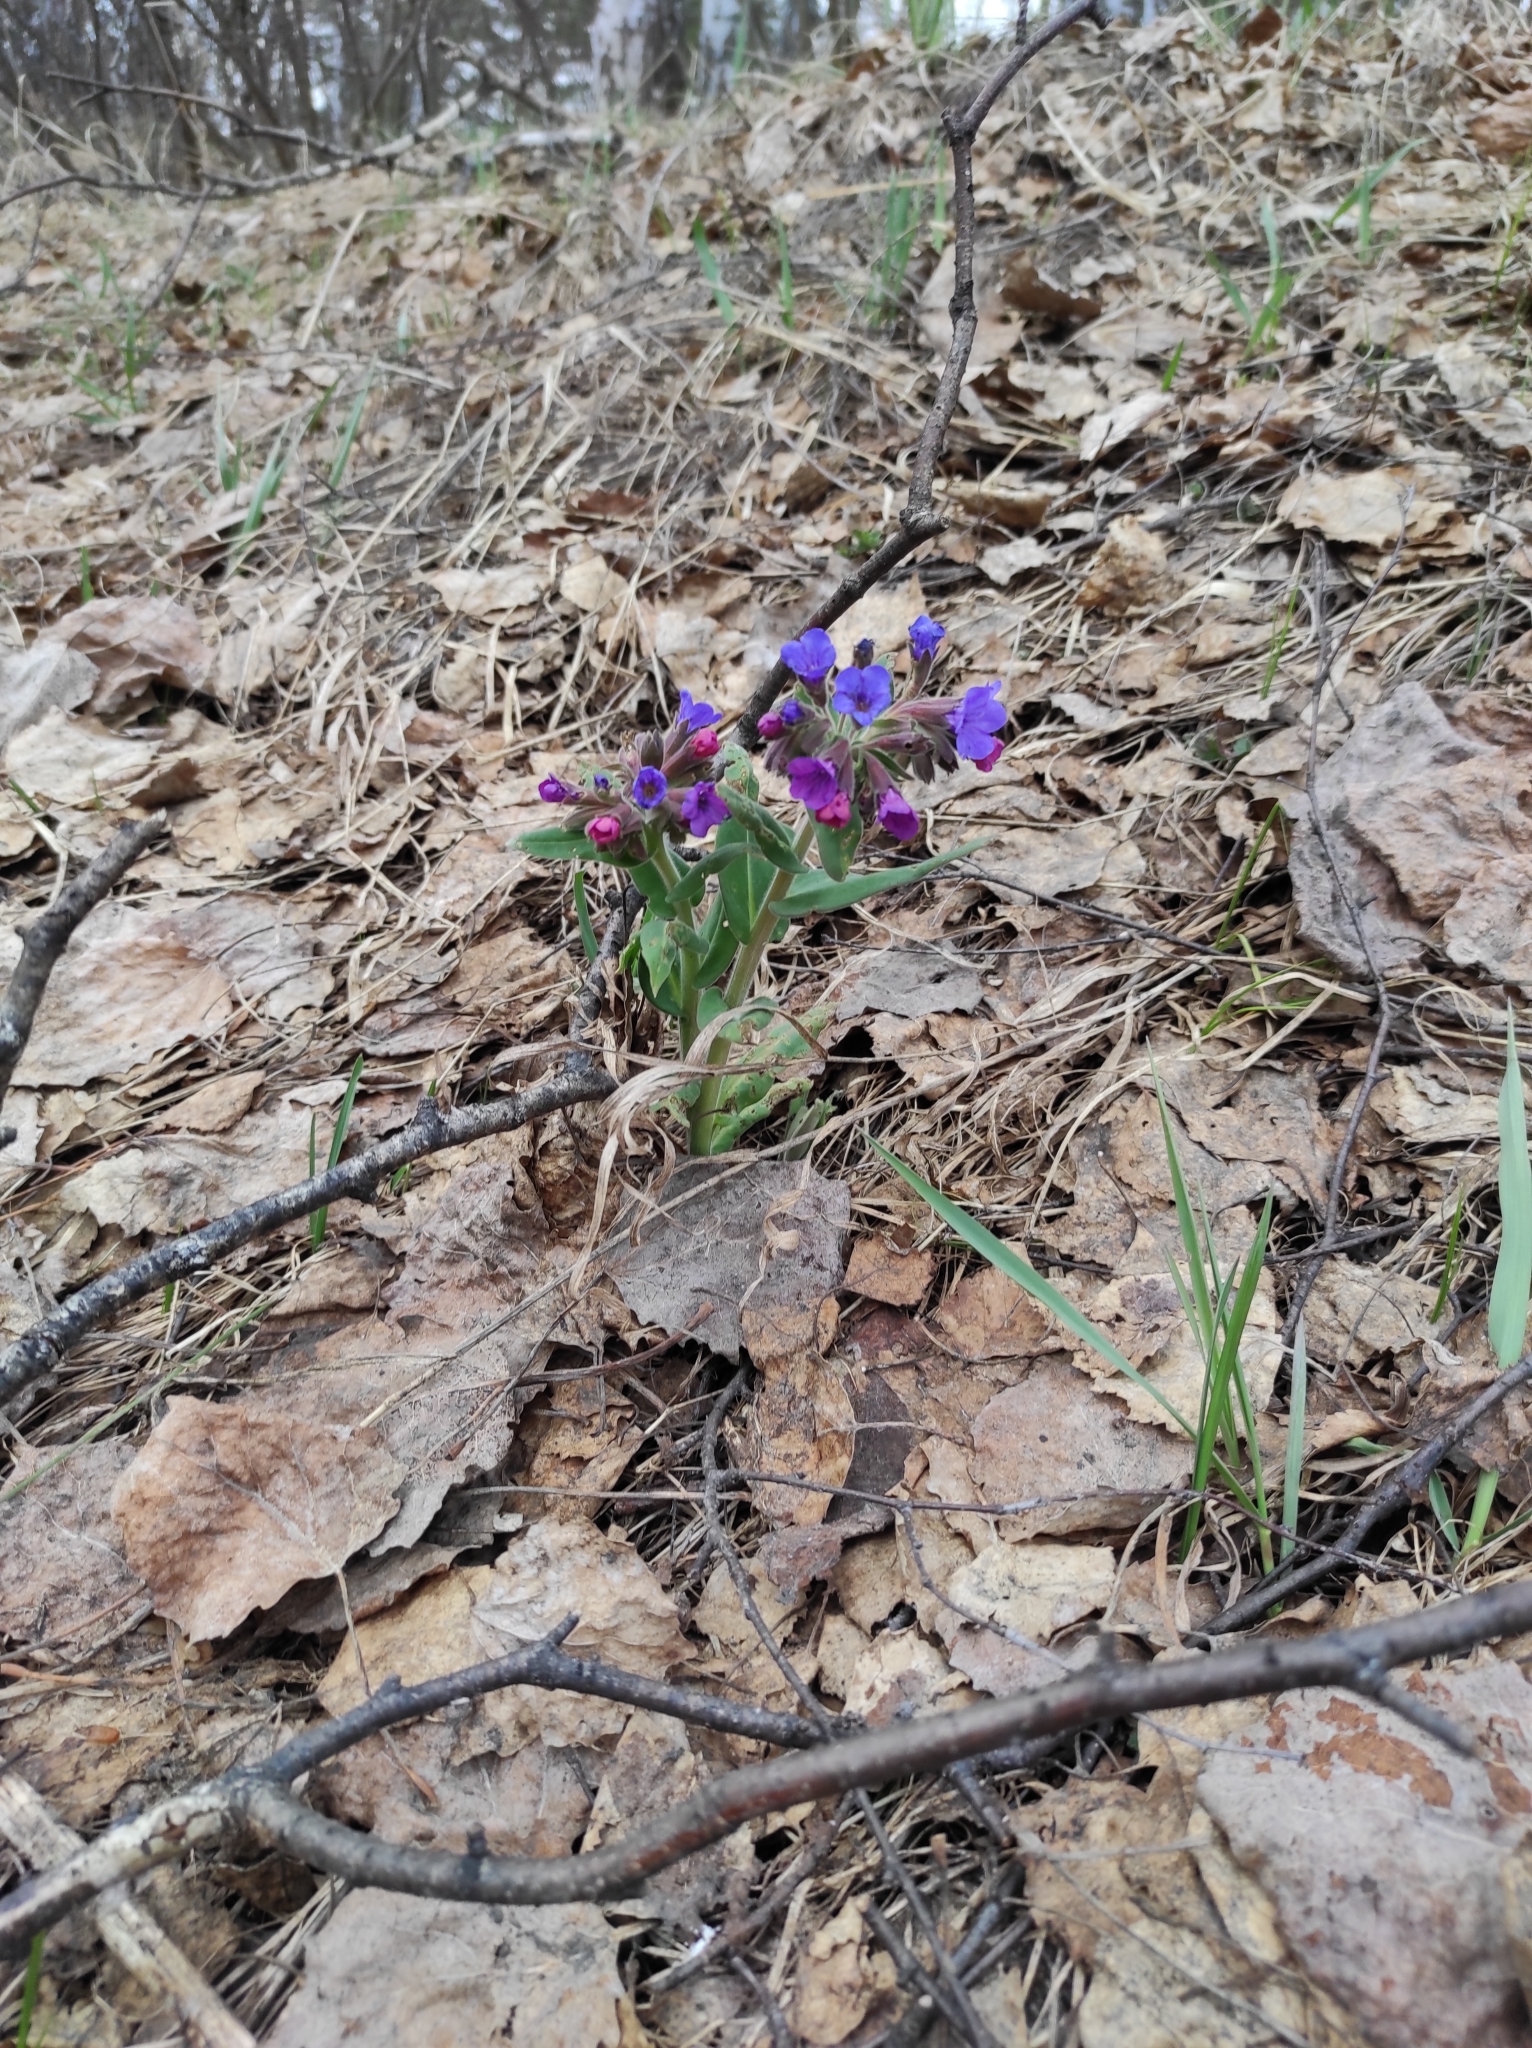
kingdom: Plantae
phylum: Tracheophyta
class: Magnoliopsida
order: Boraginales
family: Boraginaceae
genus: Pulmonaria
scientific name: Pulmonaria mollis
